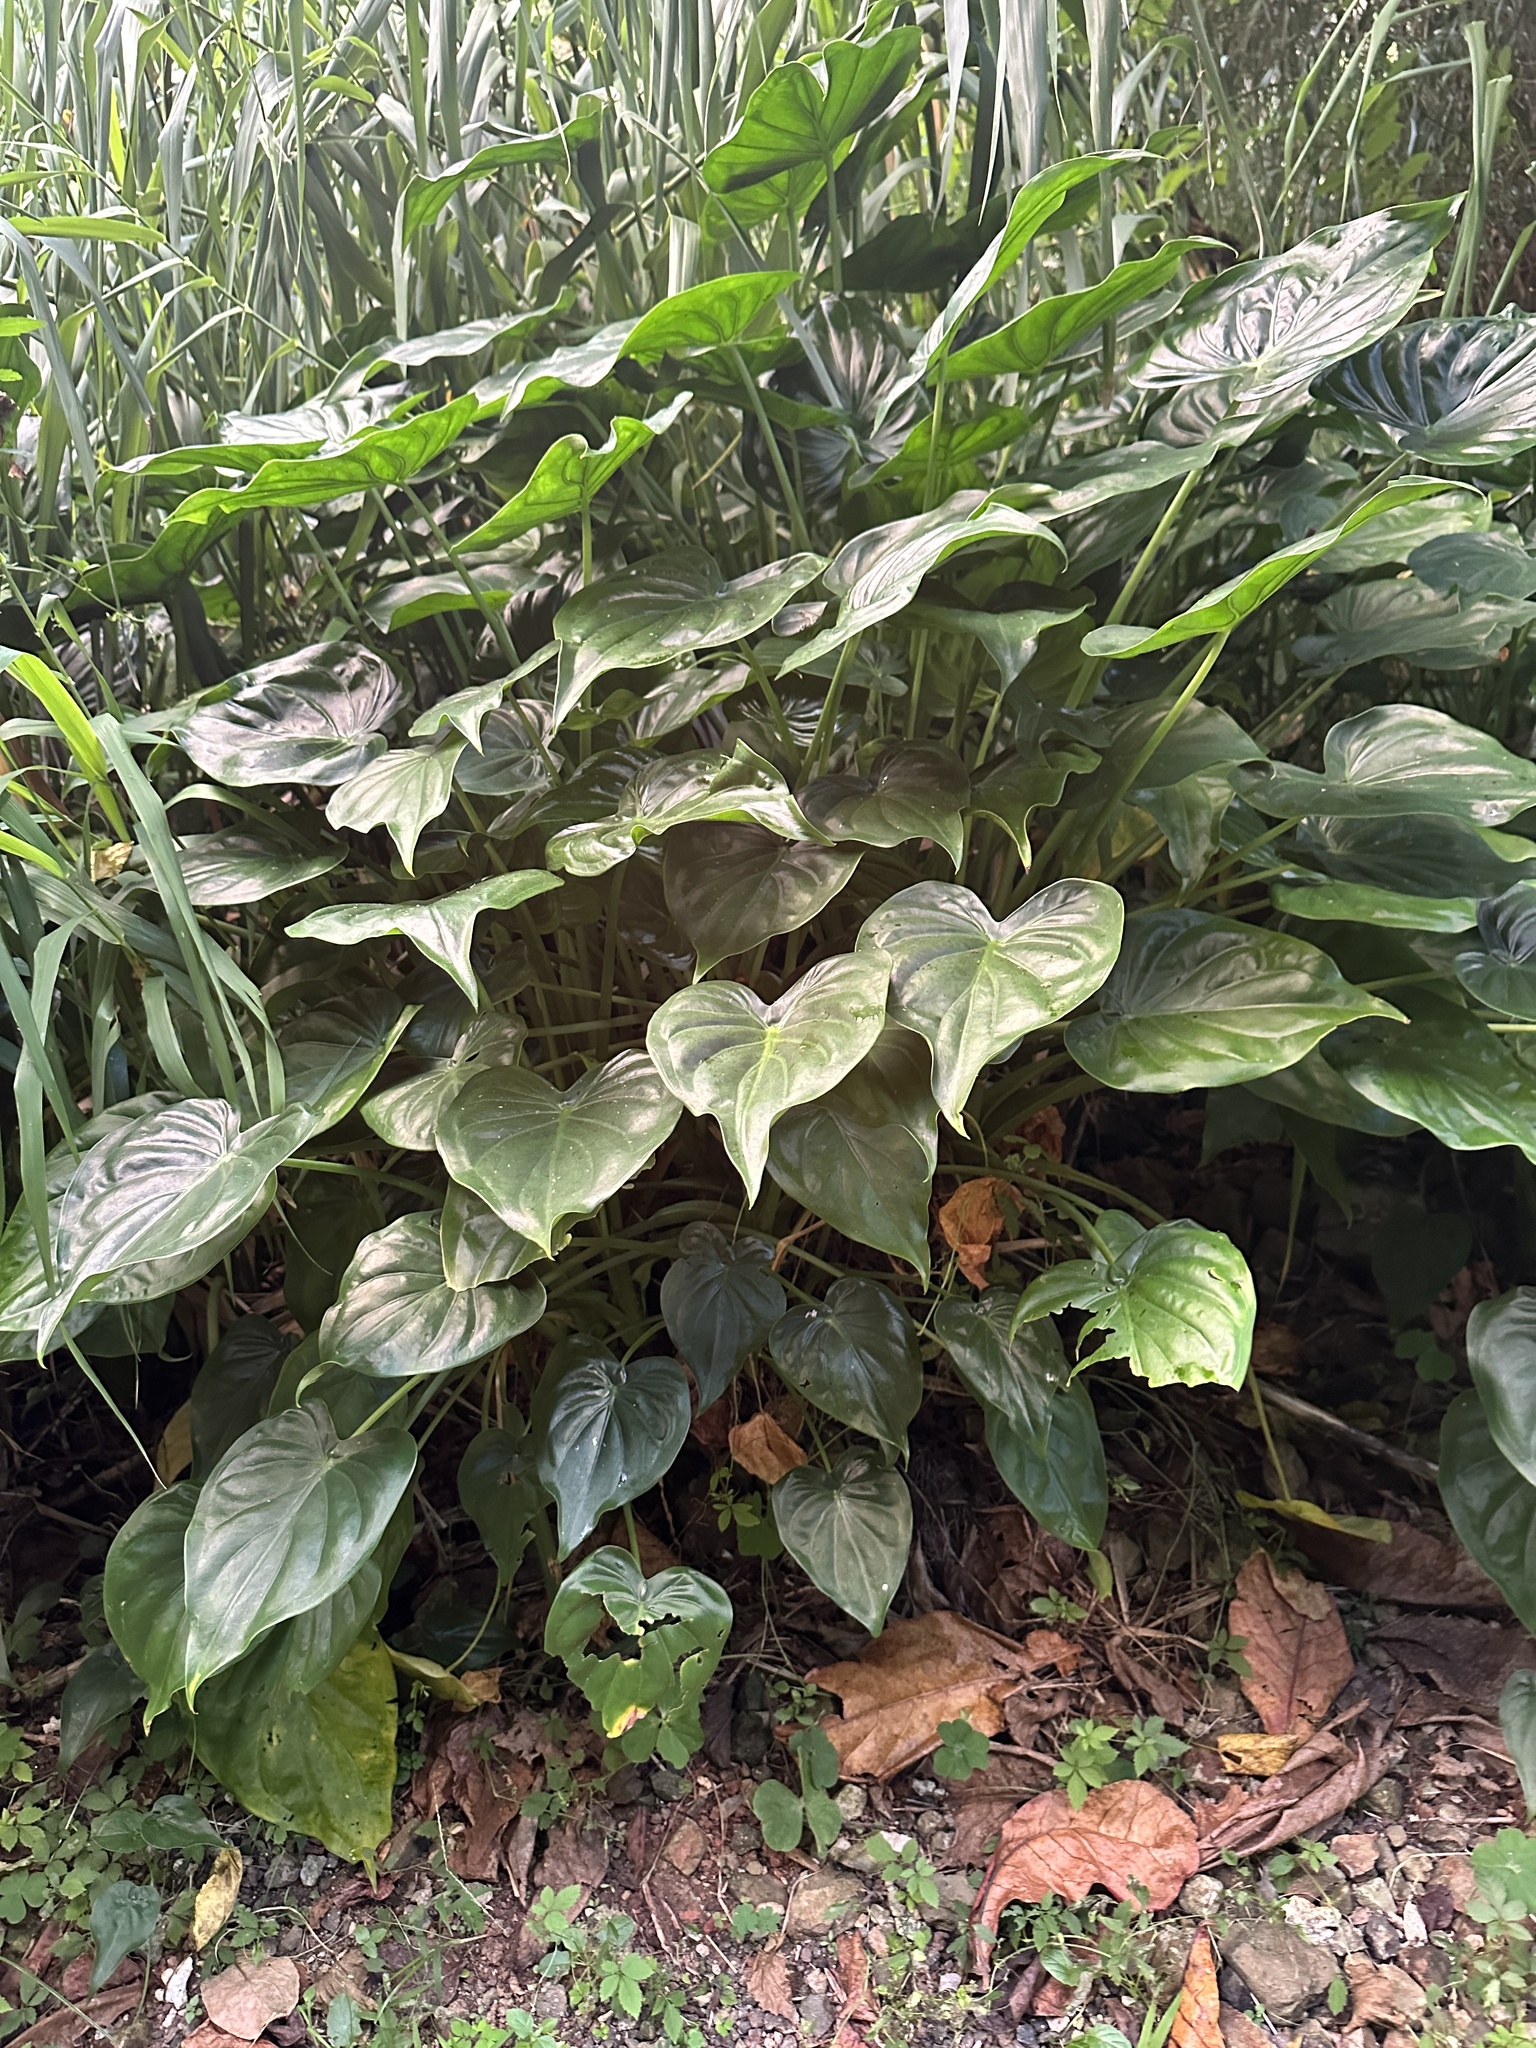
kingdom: Plantae
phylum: Tracheophyta
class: Liliopsida
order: Alismatales
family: Araceae
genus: Alocasia
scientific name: Alocasia cucullata
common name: Buddha's hand
